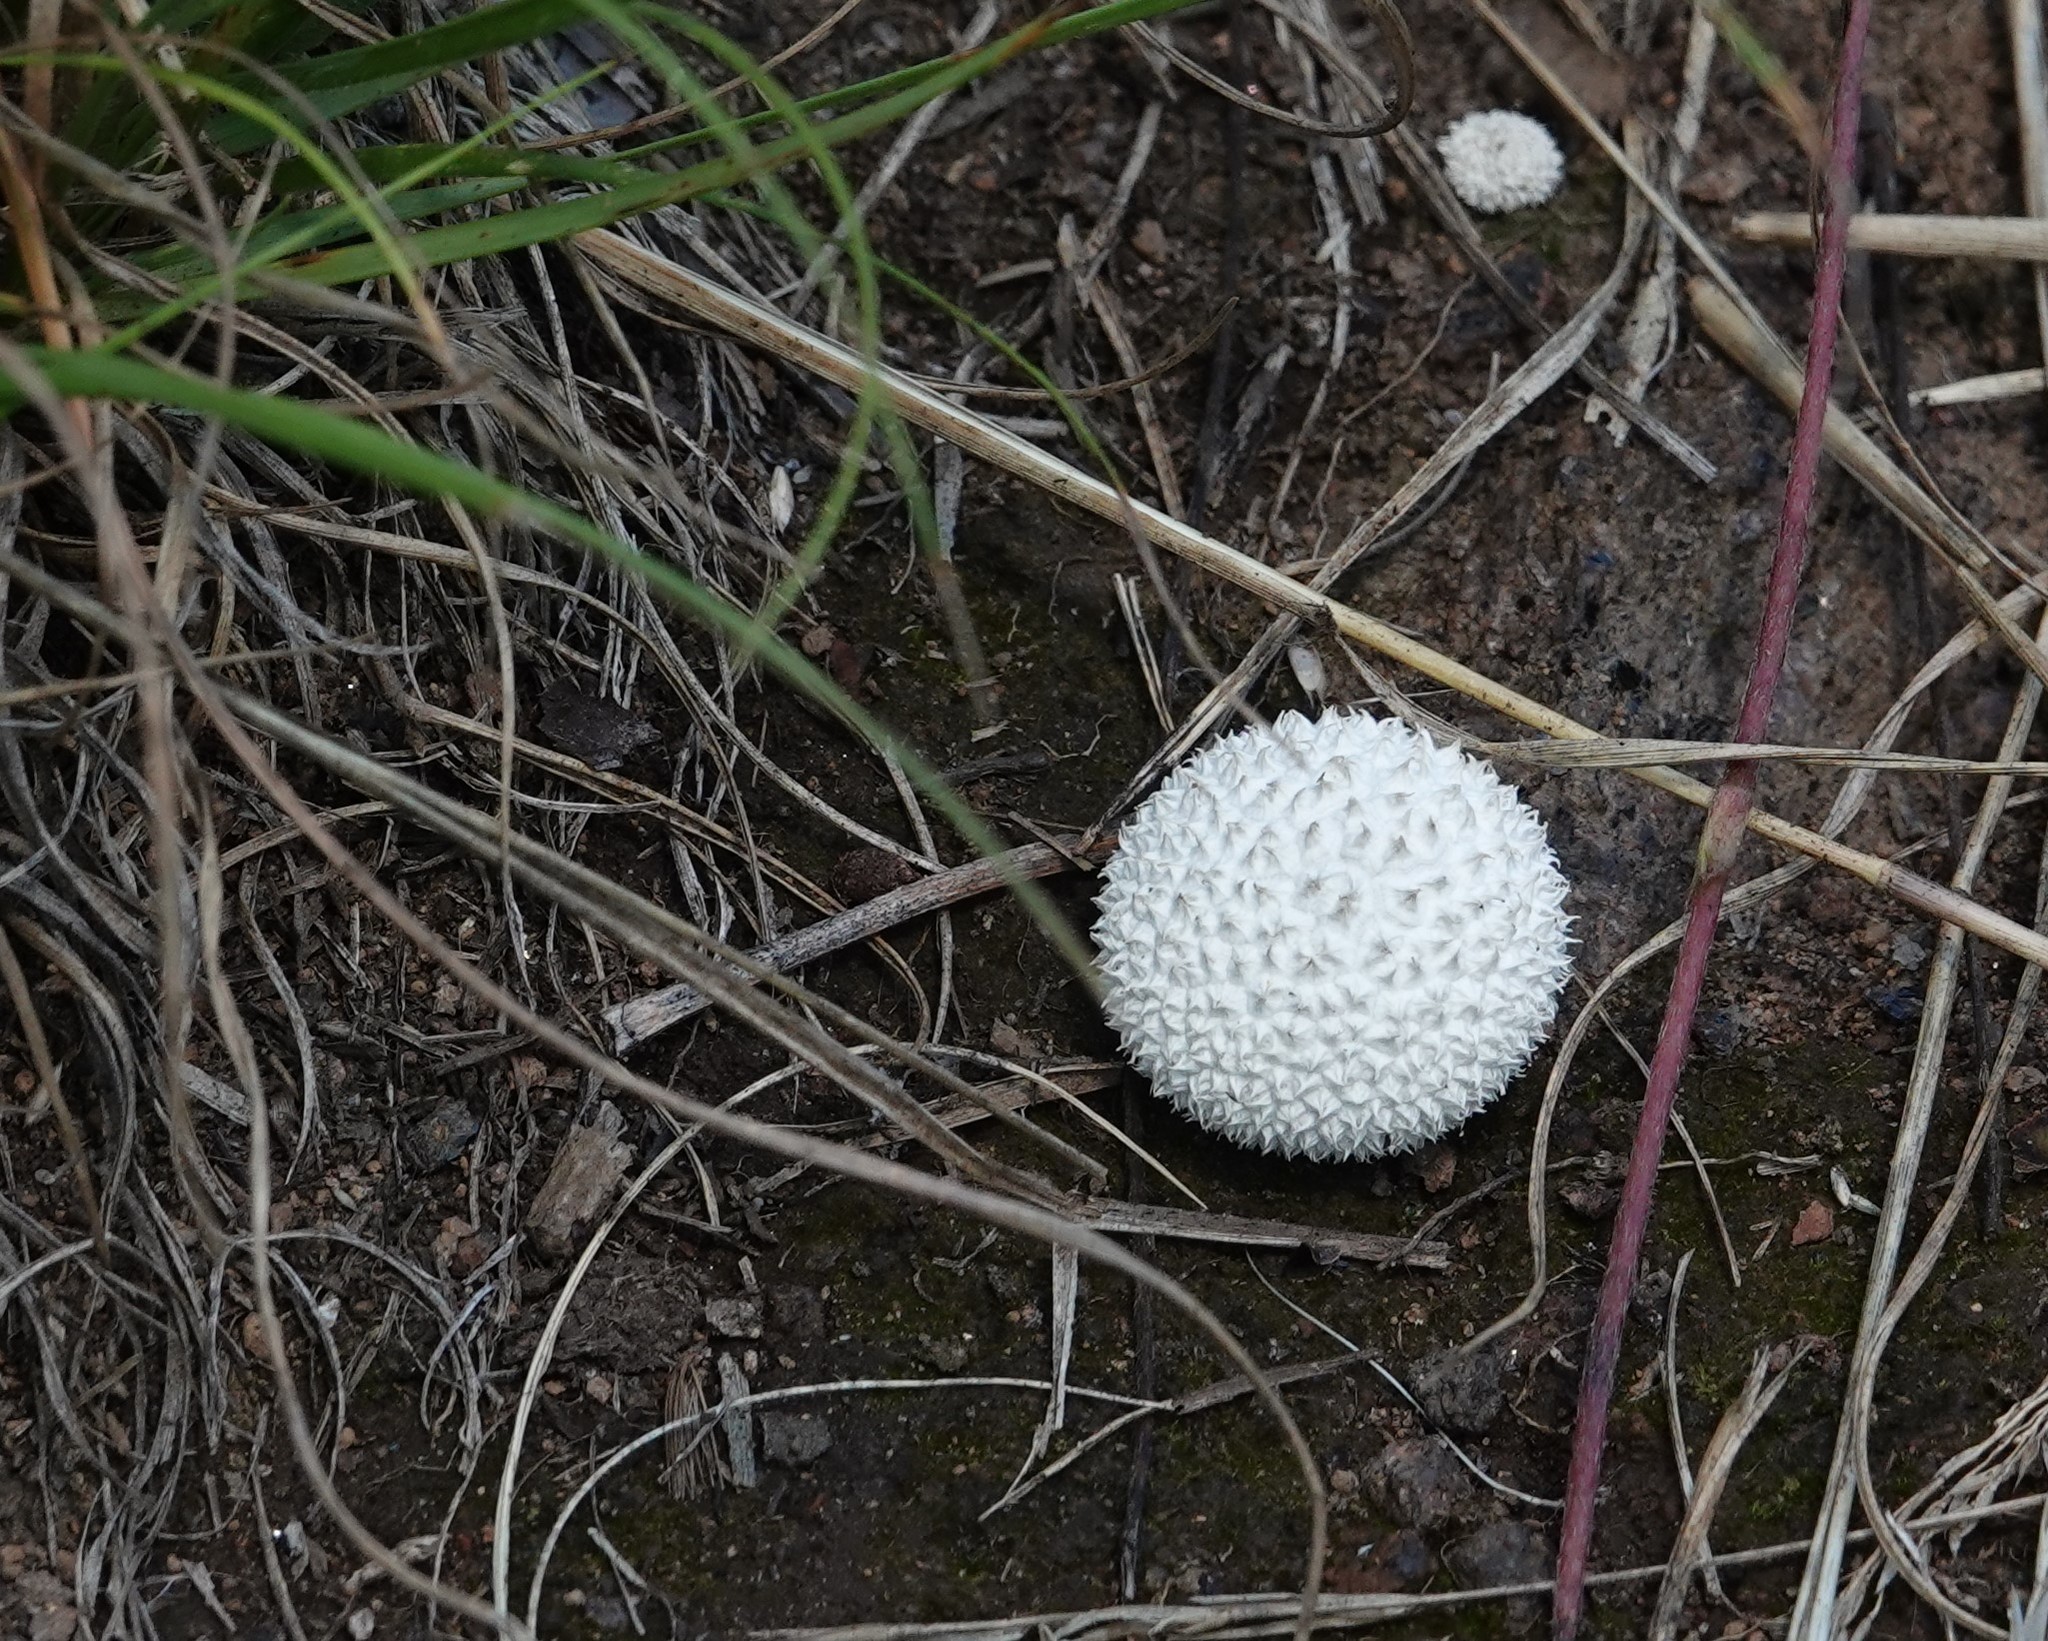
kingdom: Fungi
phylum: Basidiomycota
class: Agaricomycetes
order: Agaricales
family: Agaricaceae
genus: Lycoperdon
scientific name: Lycoperdon marginatum
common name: Peeling puffball
